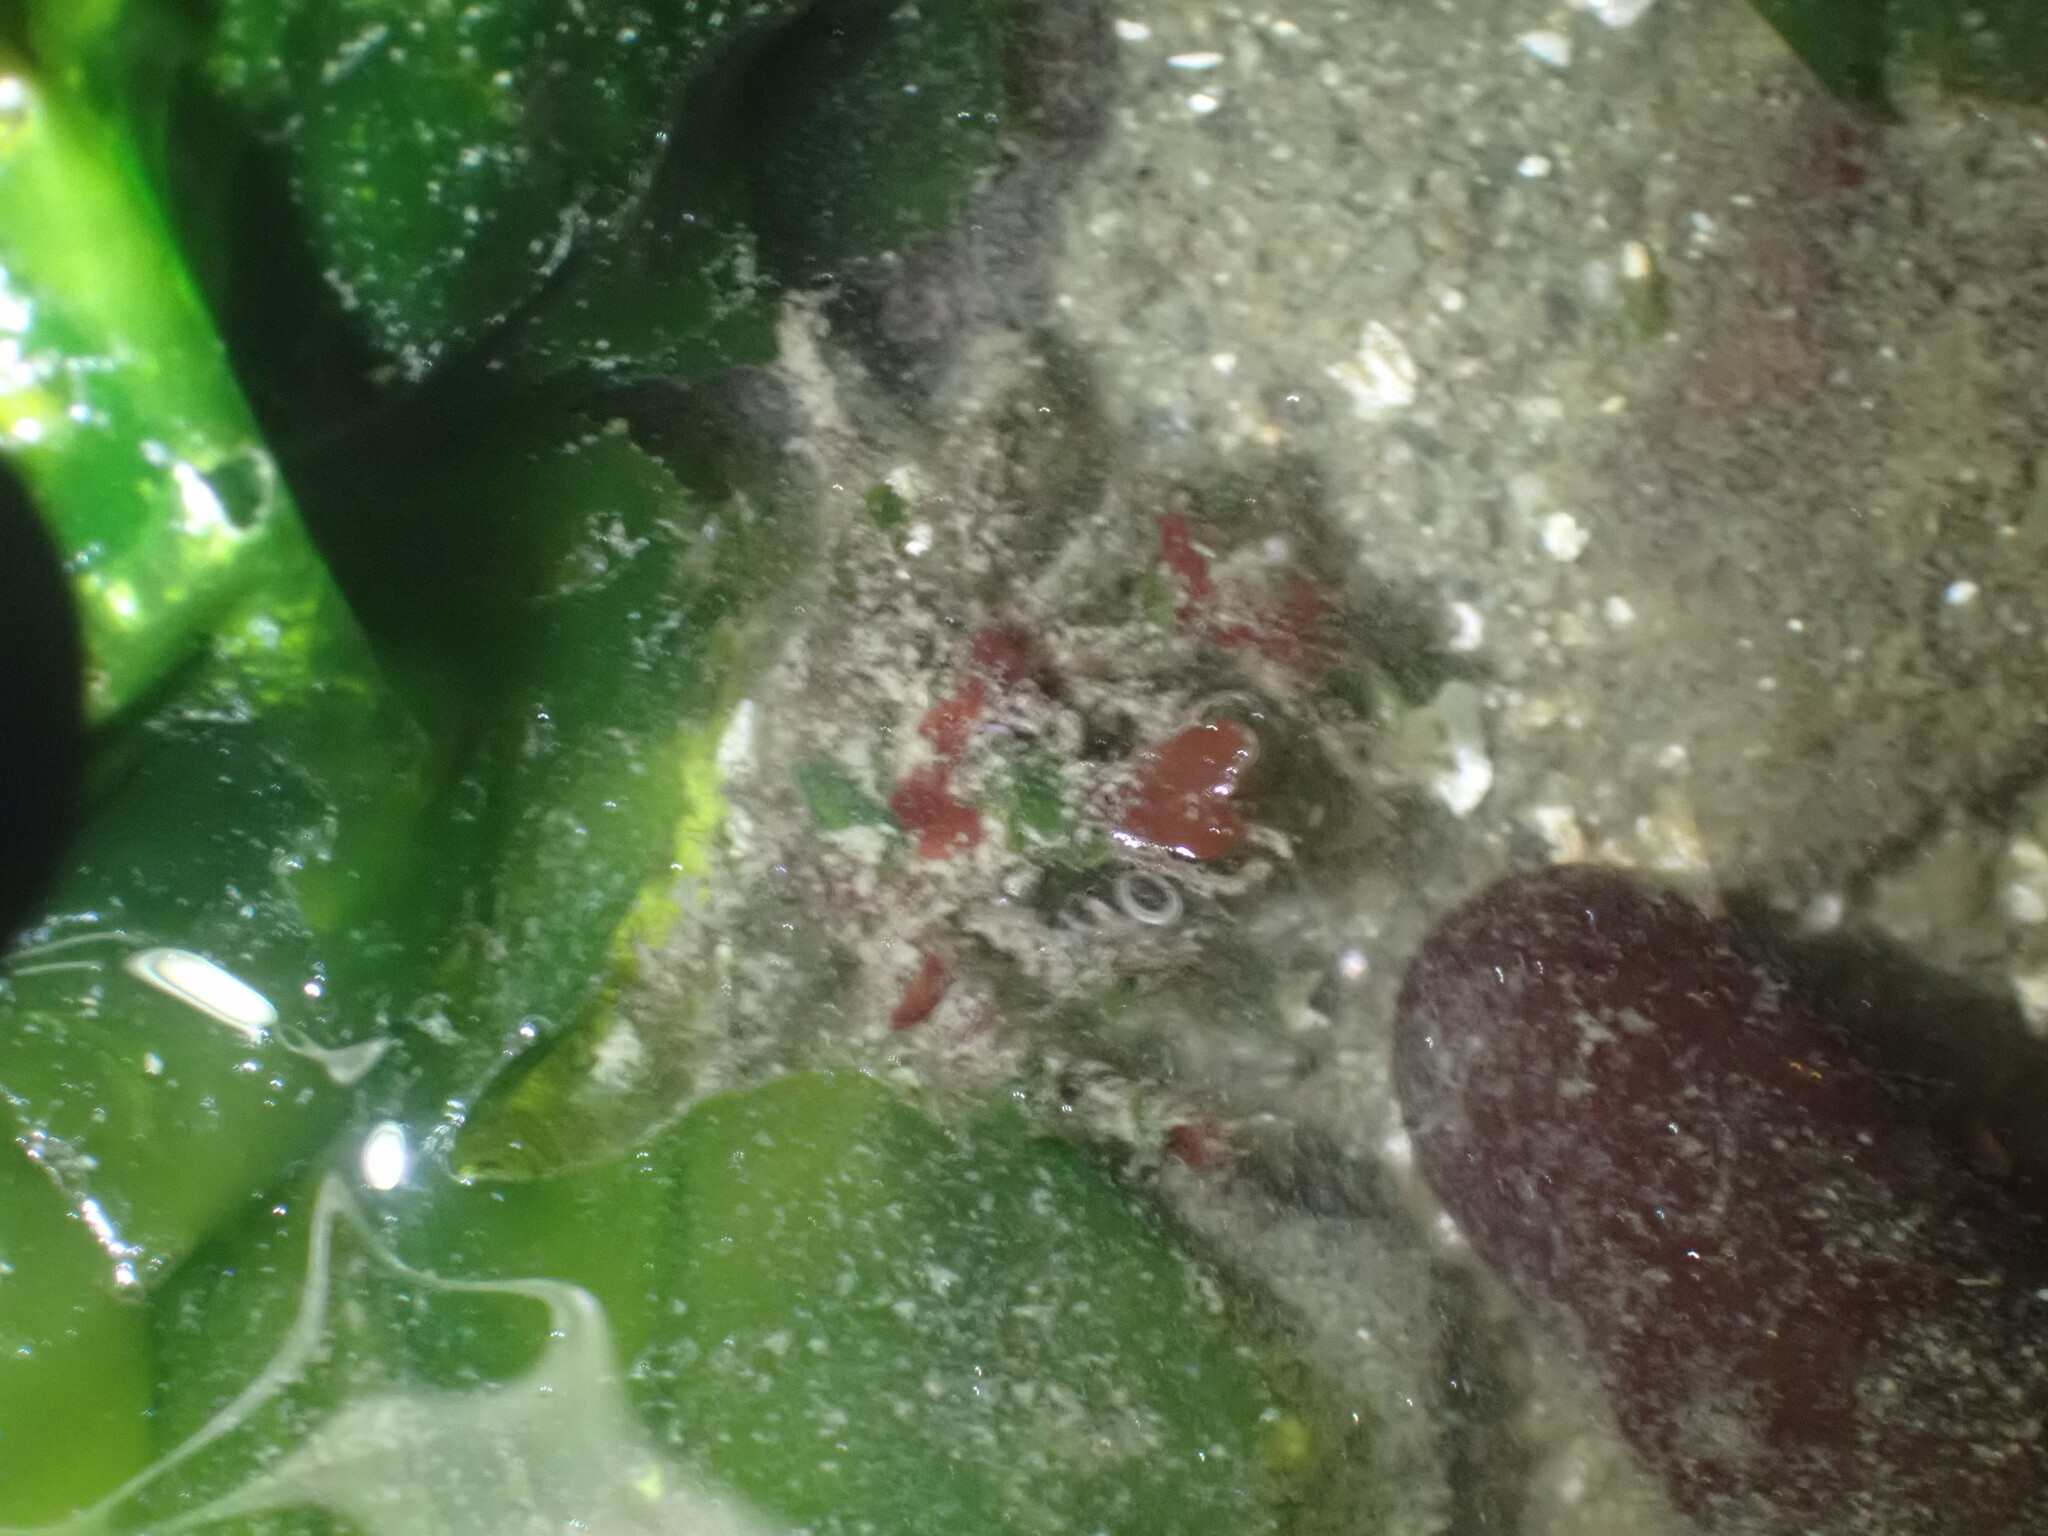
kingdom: Animalia
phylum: Arthropoda
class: Malacostraca
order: Decapoda
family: Oregoniidae
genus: Oregonia
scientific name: Oregonia gracilis
